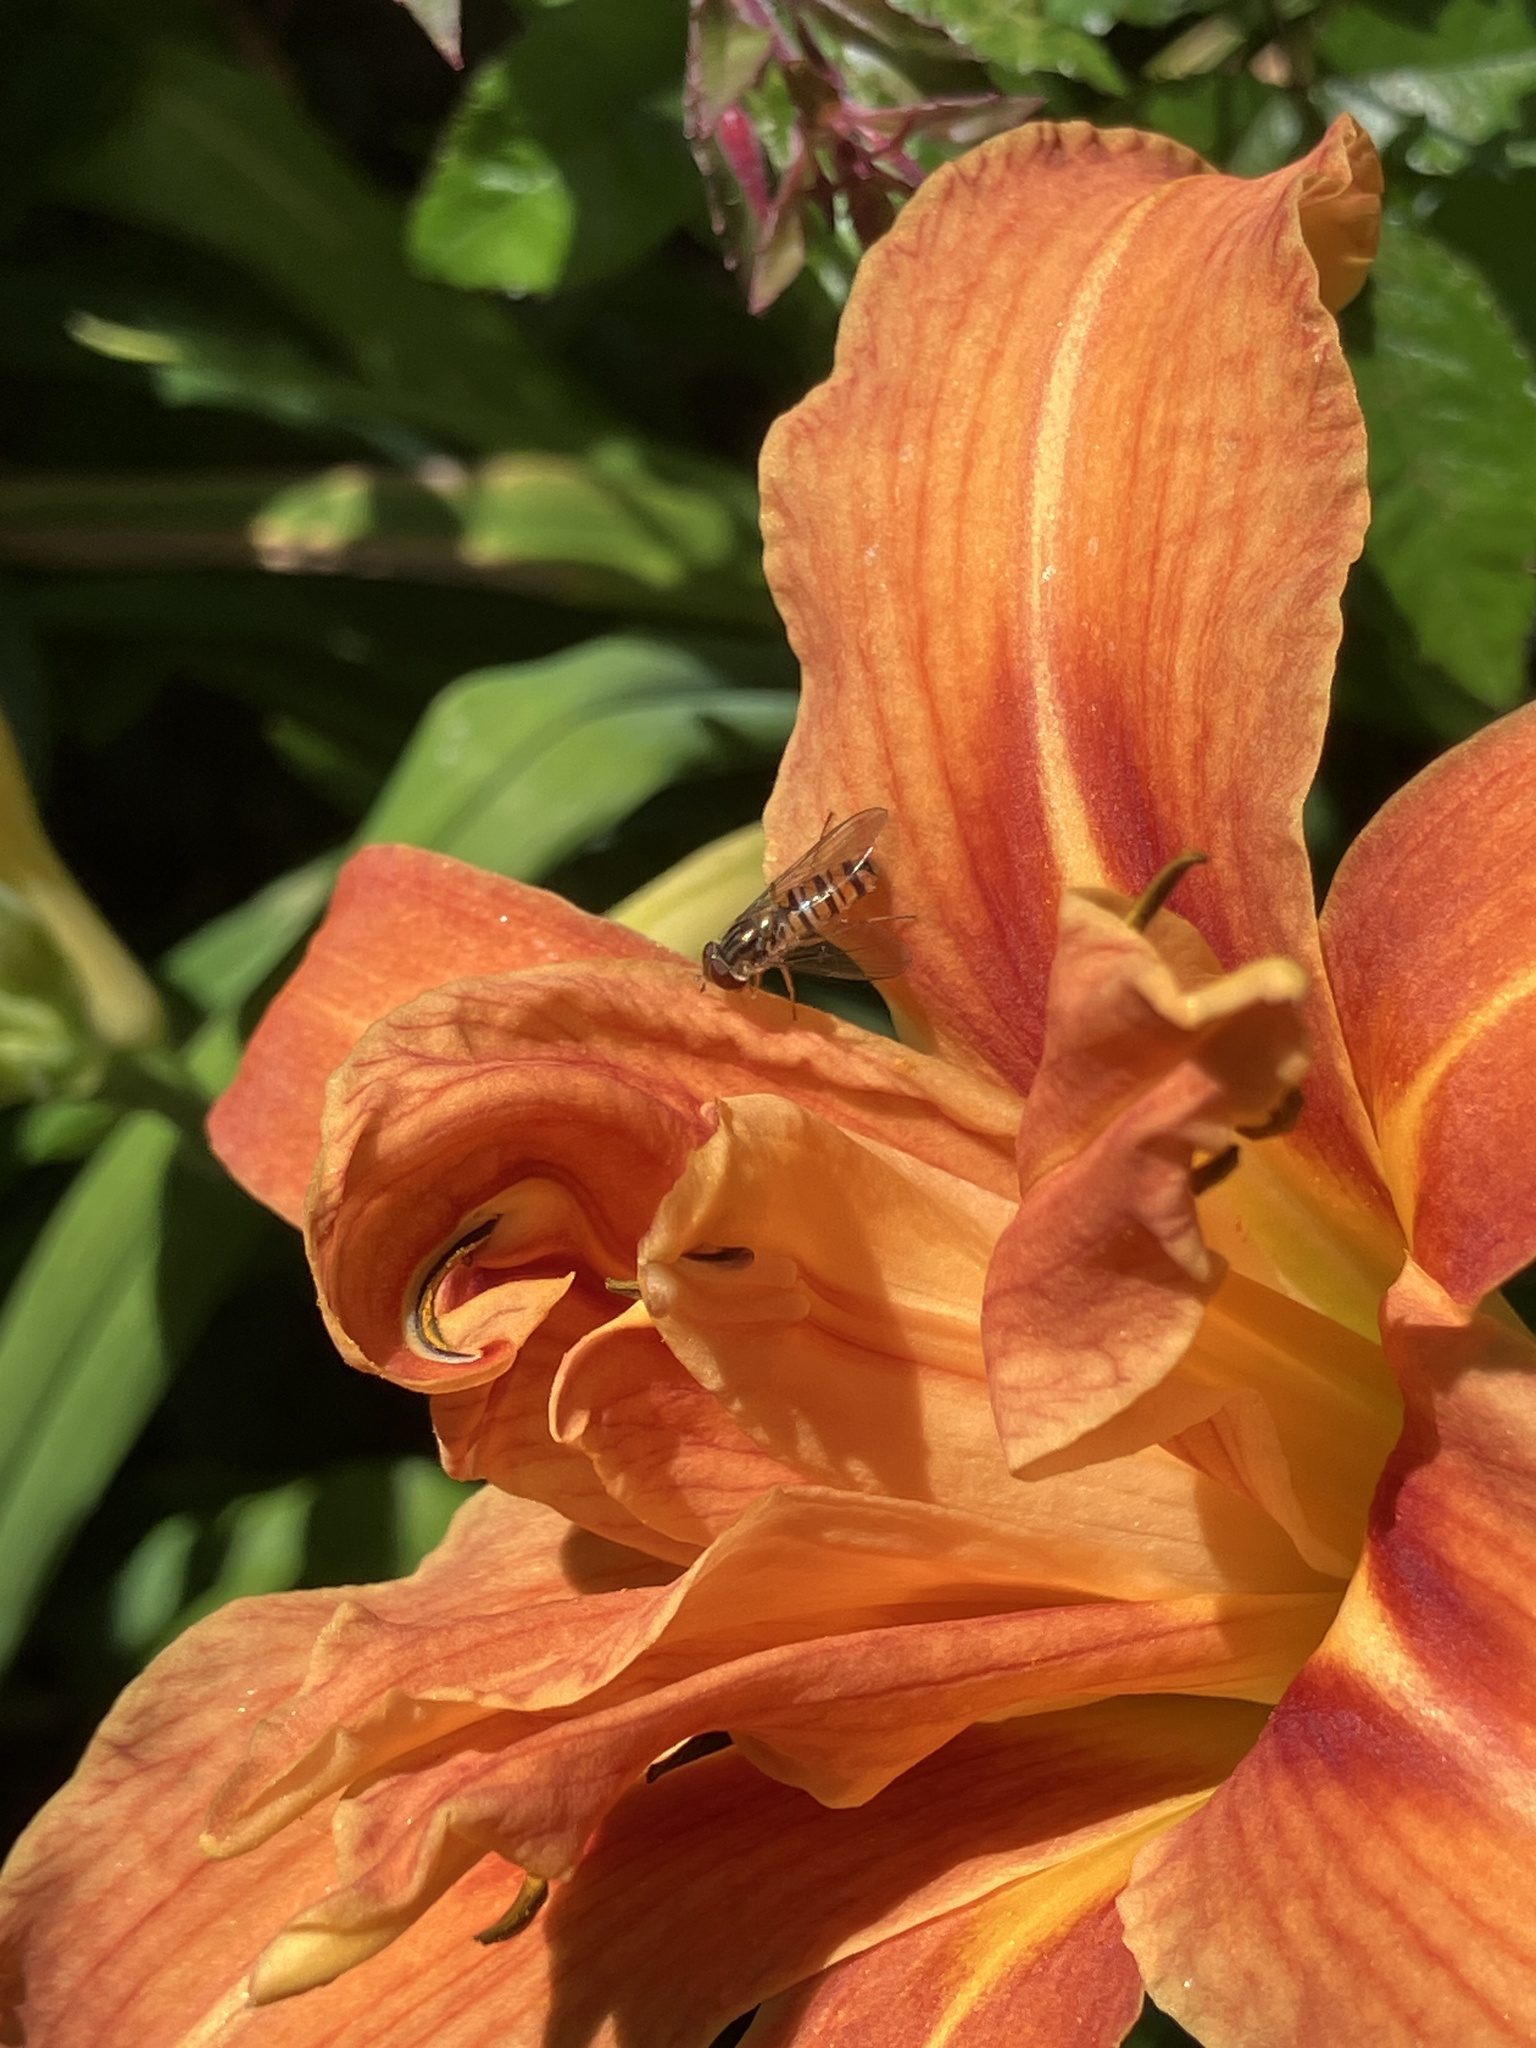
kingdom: Animalia
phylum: Arthropoda
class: Insecta
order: Diptera
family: Syrphidae
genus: Episyrphus
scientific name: Episyrphus balteatus
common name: Marmalade hoverfly
